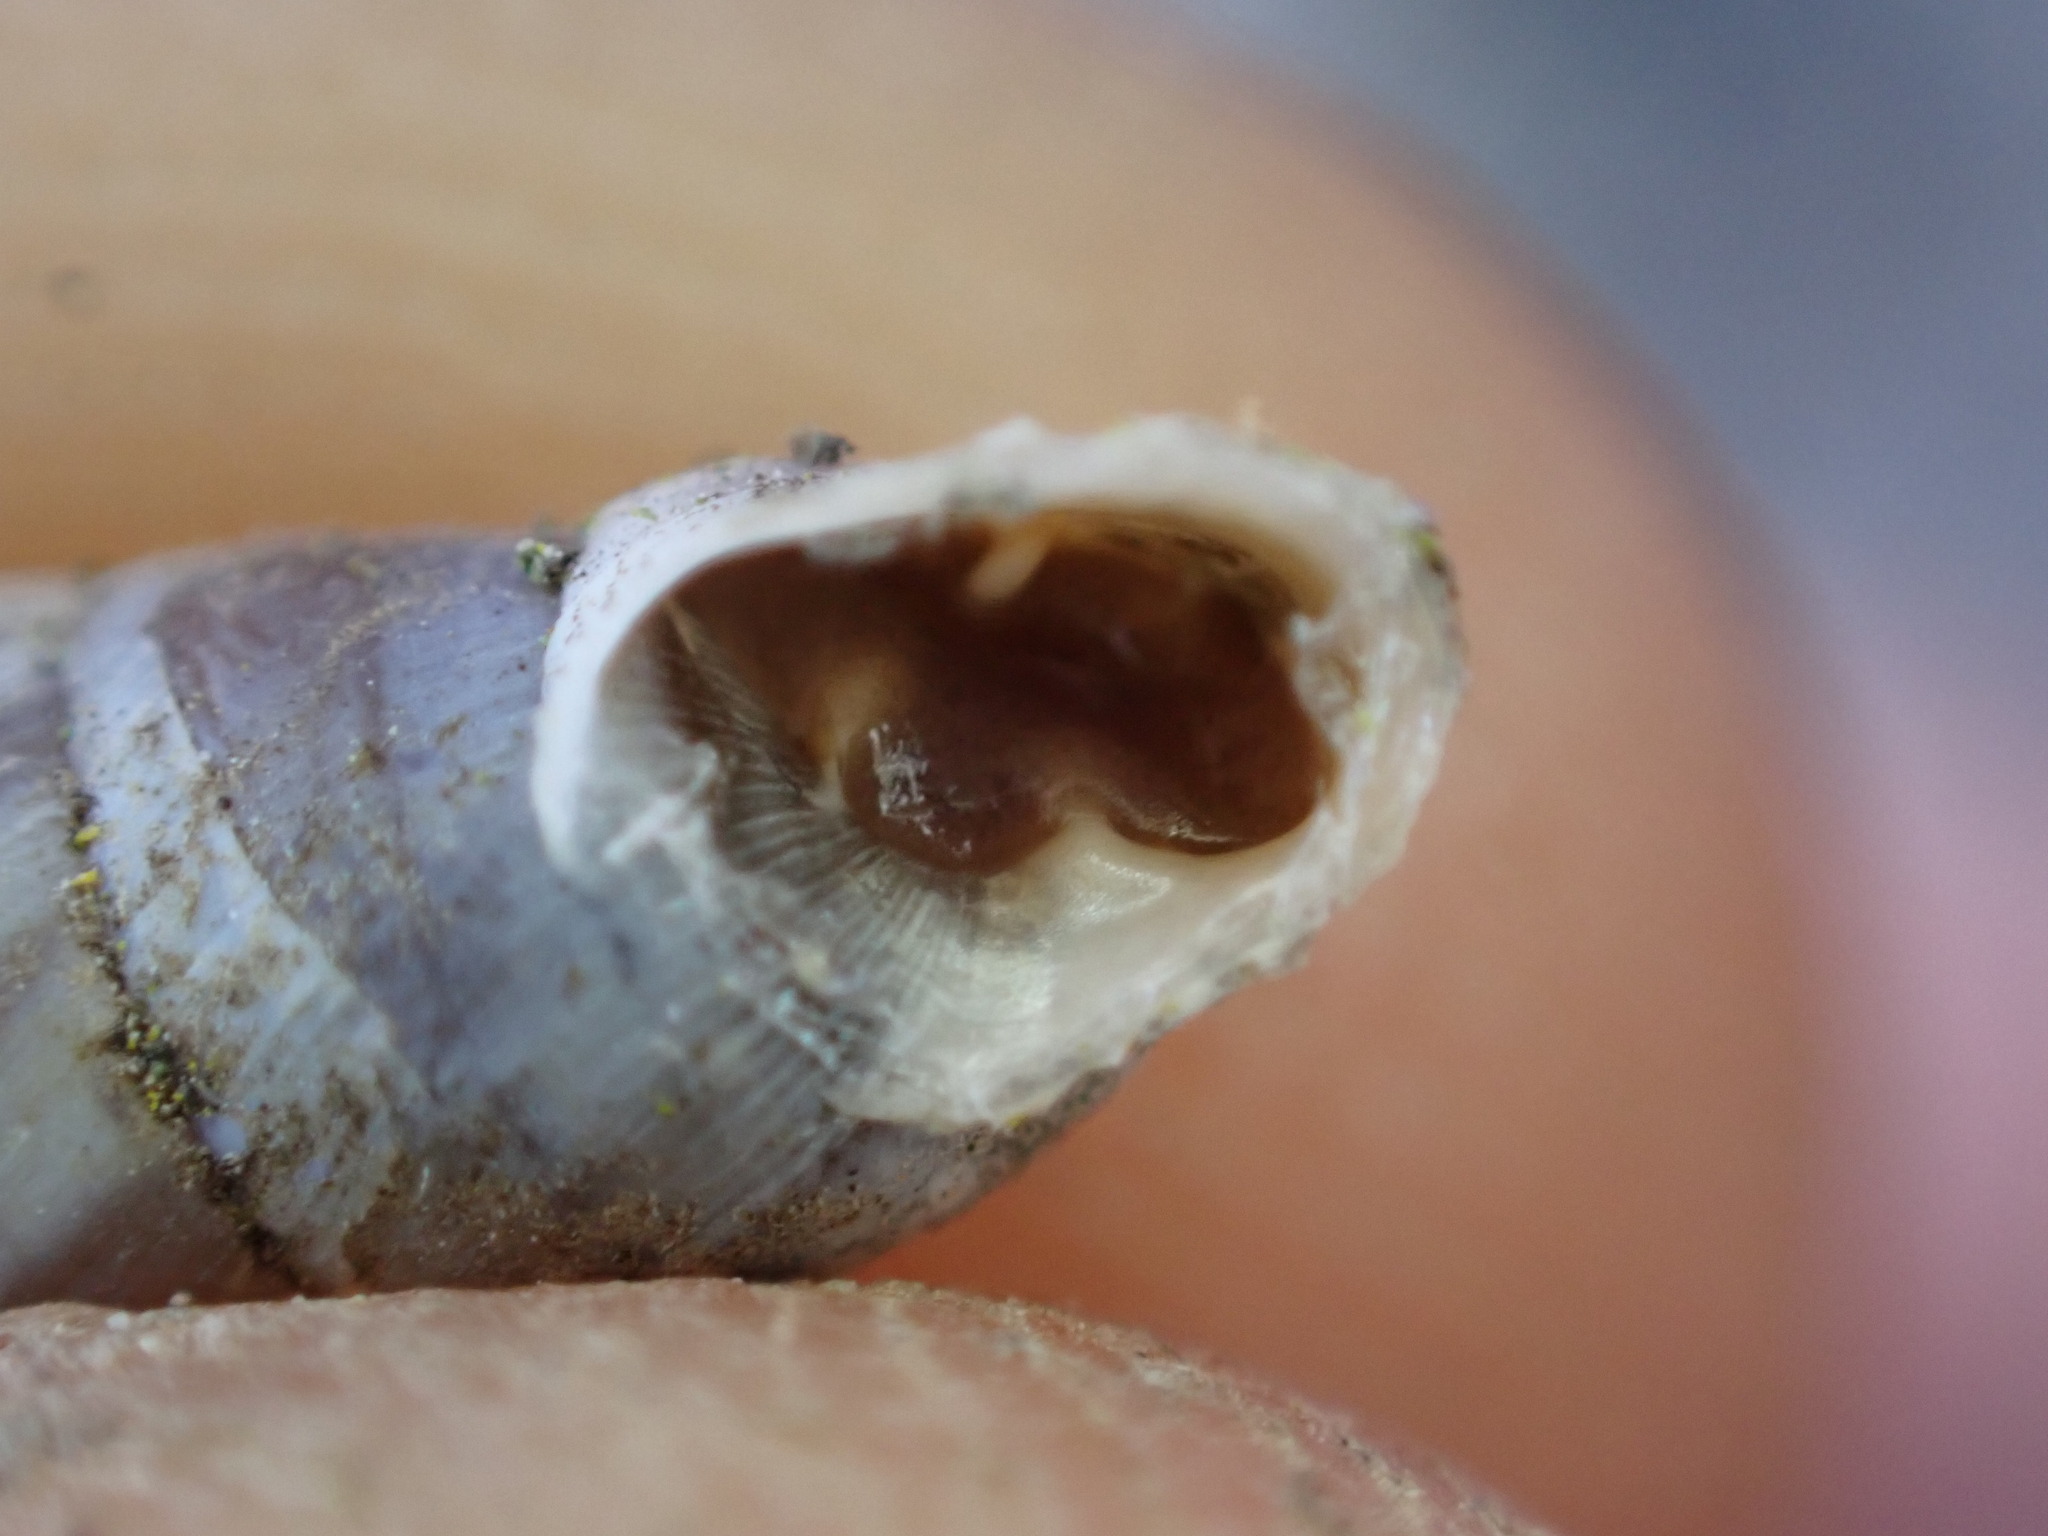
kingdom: Animalia
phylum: Mollusca
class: Gastropoda
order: Stylommatophora
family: Chondrinidae
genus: Solatopupa
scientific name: Solatopupa similis
